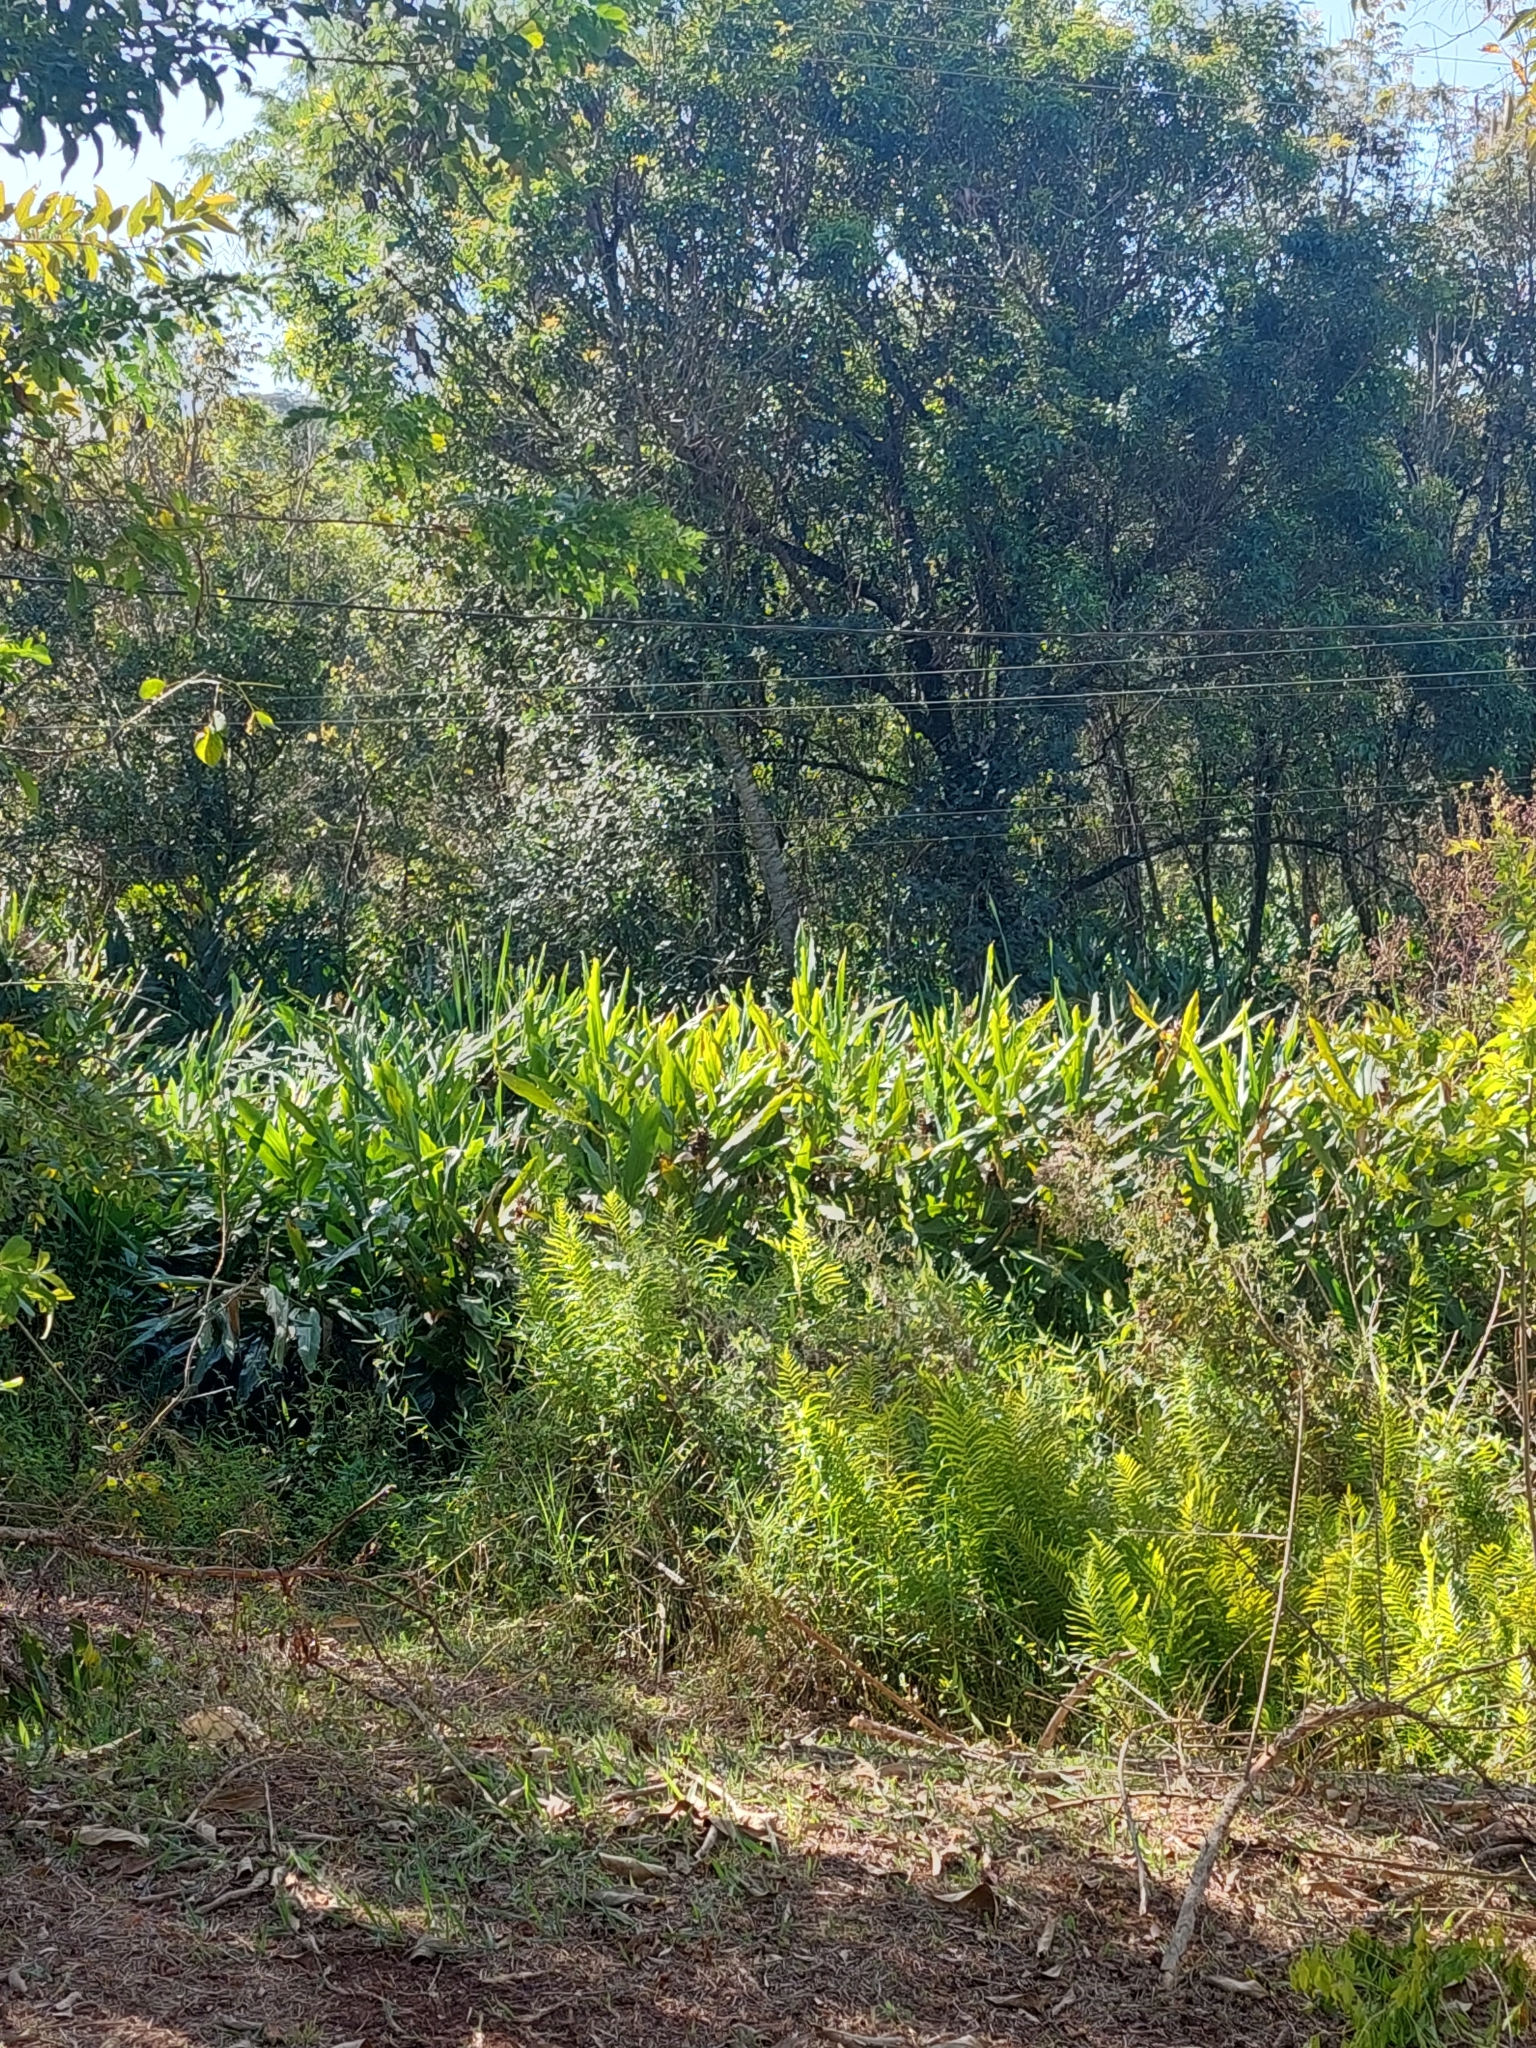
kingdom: Plantae
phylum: Tracheophyta
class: Liliopsida
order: Zingiberales
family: Zingiberaceae
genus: Hedychium
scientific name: Hedychium coronarium
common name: White garland-lily
